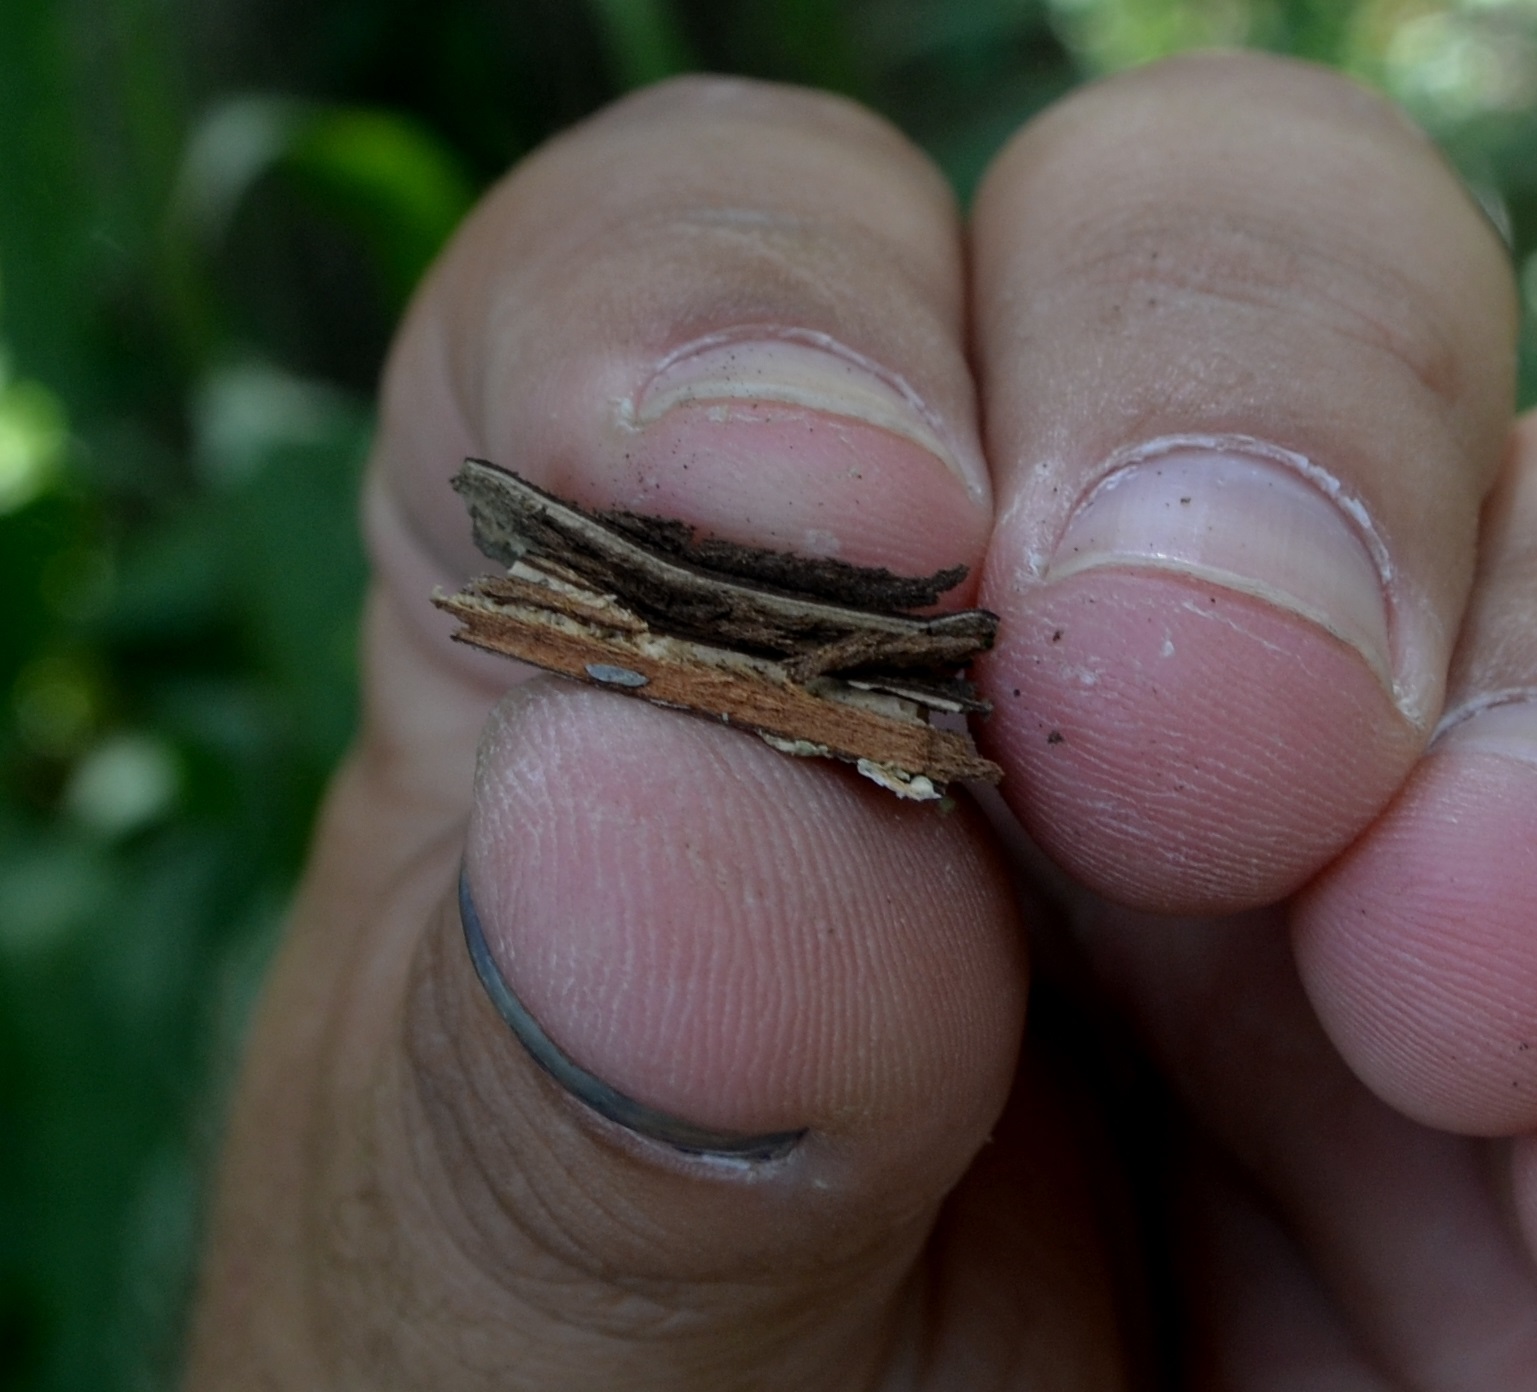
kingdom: Plantae
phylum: Tracheophyta
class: Magnoliopsida
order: Rosales
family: Ulmaceae
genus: Ulmus
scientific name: Ulmus americana
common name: American elm
